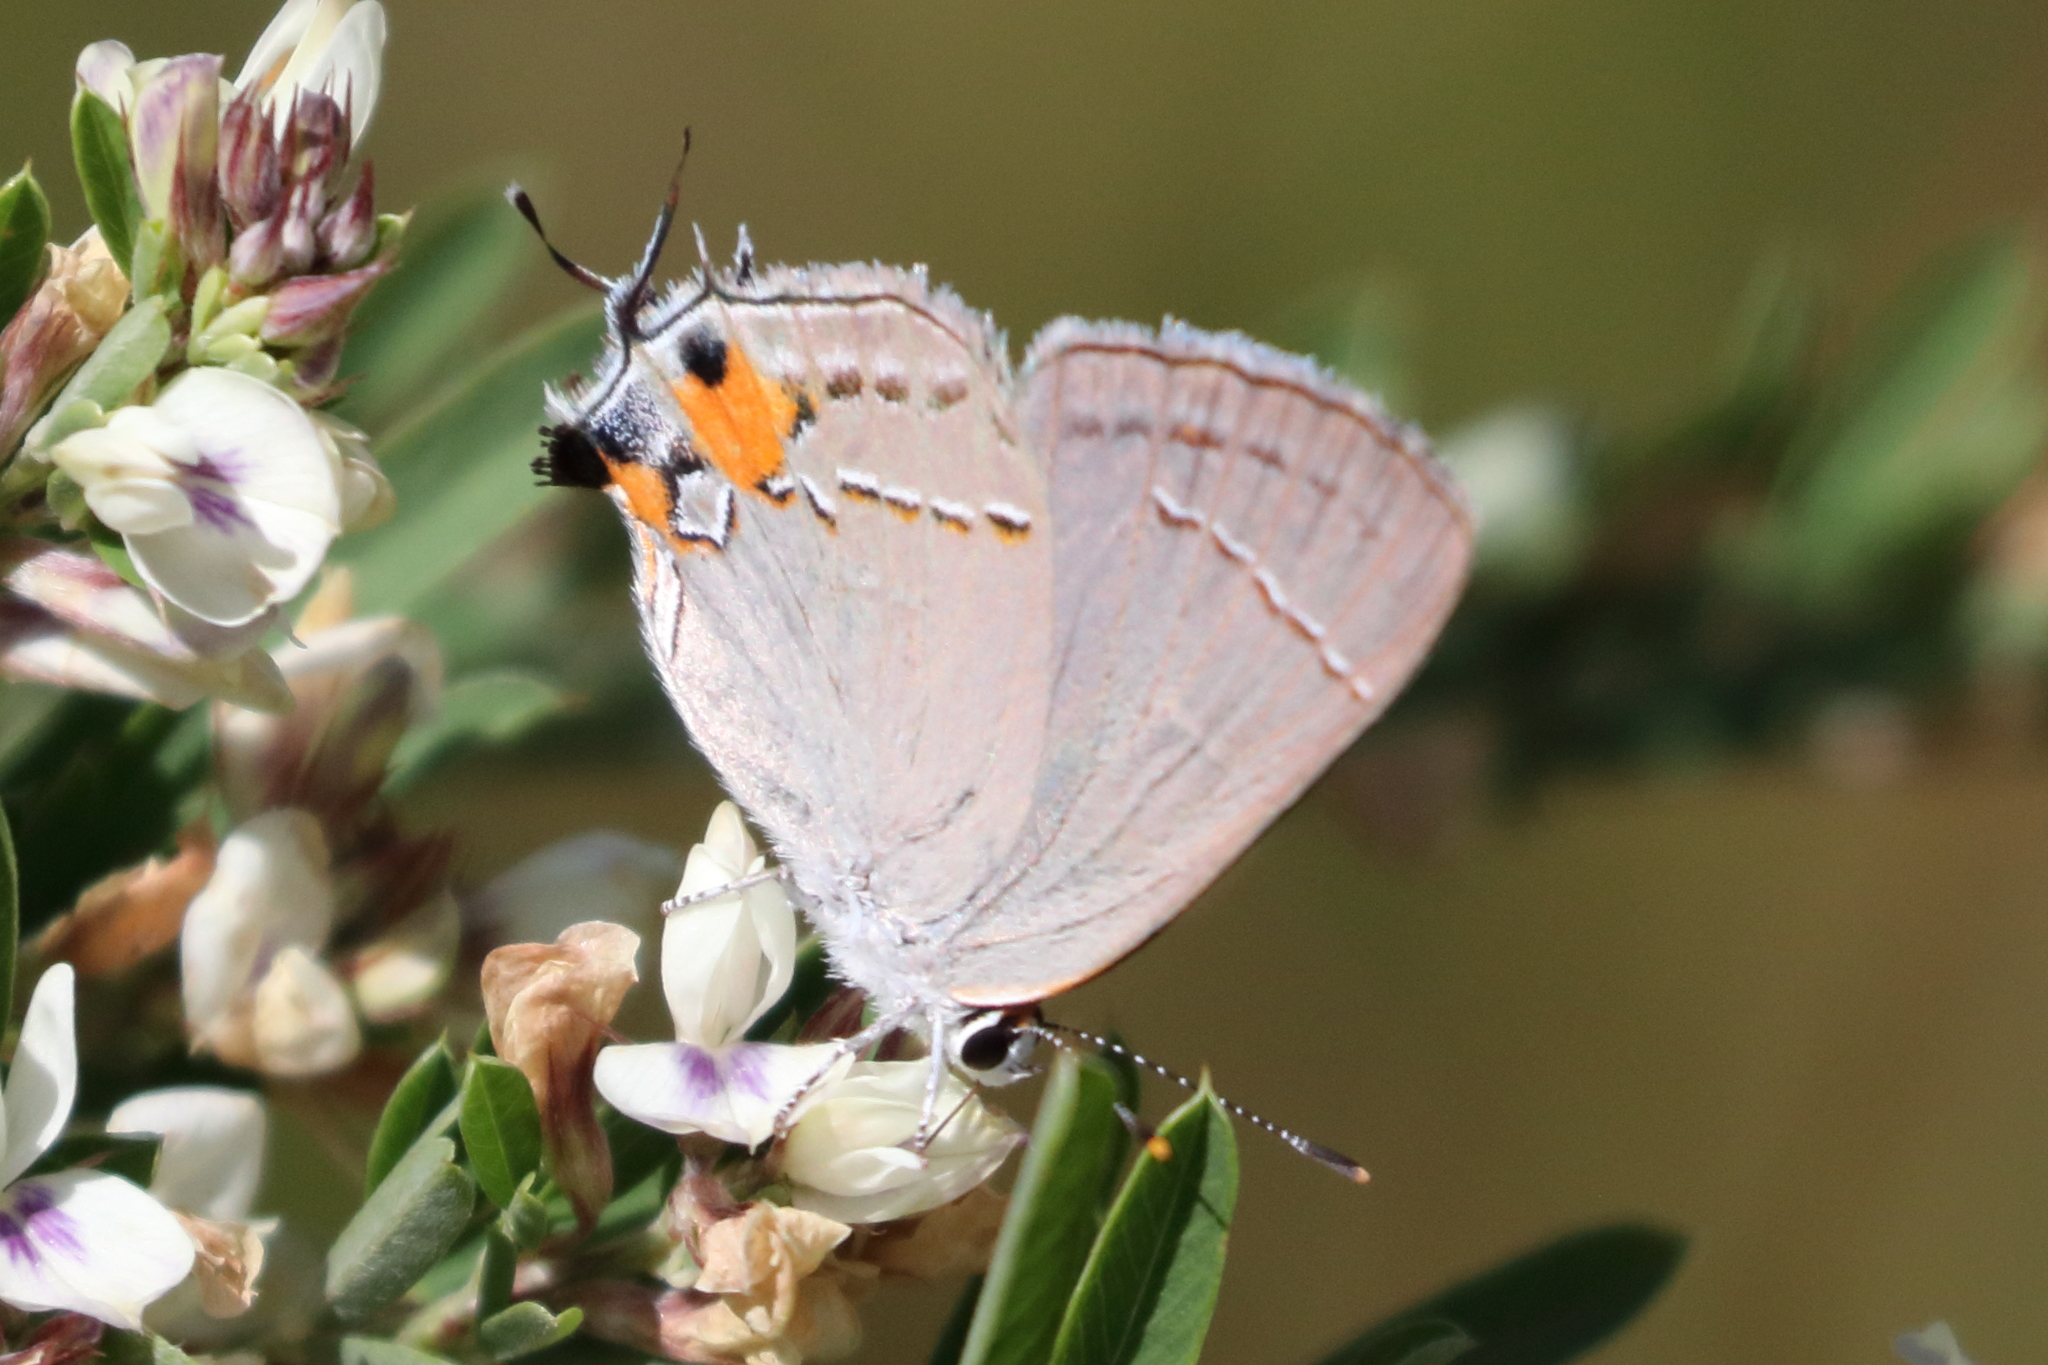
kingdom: Animalia
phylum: Arthropoda
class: Insecta
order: Lepidoptera
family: Lycaenidae
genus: Strymon
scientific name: Strymon melinus
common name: Gray hairstreak
